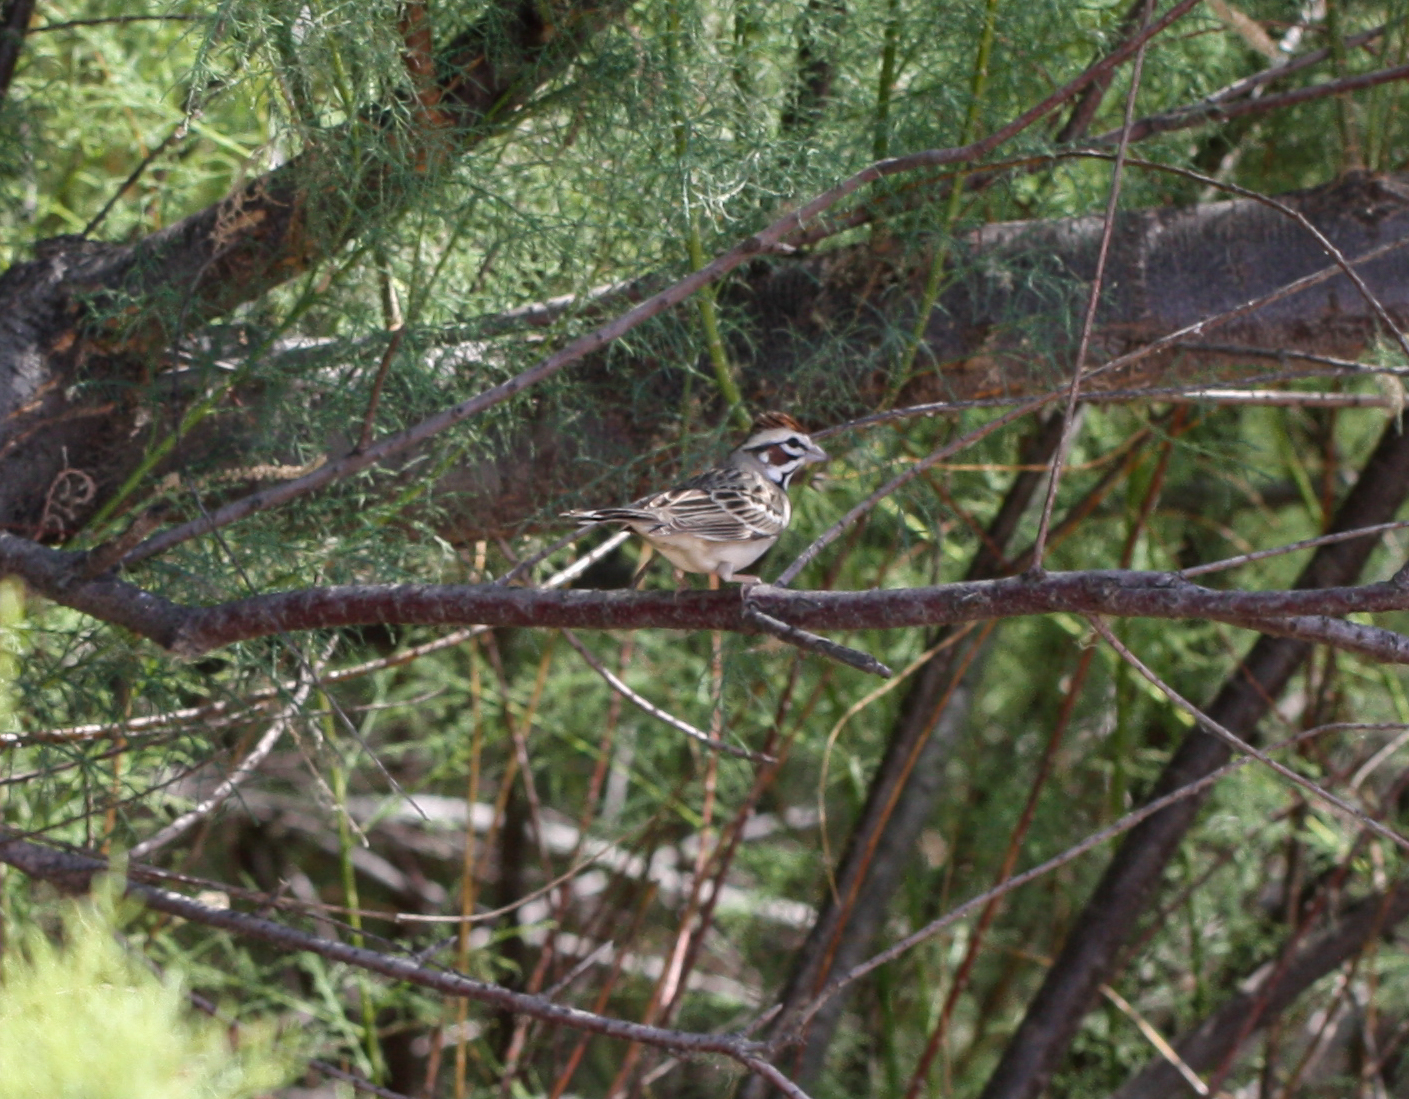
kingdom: Animalia
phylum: Chordata
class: Aves
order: Passeriformes
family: Passerellidae
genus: Chondestes
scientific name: Chondestes grammacus
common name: Lark sparrow
